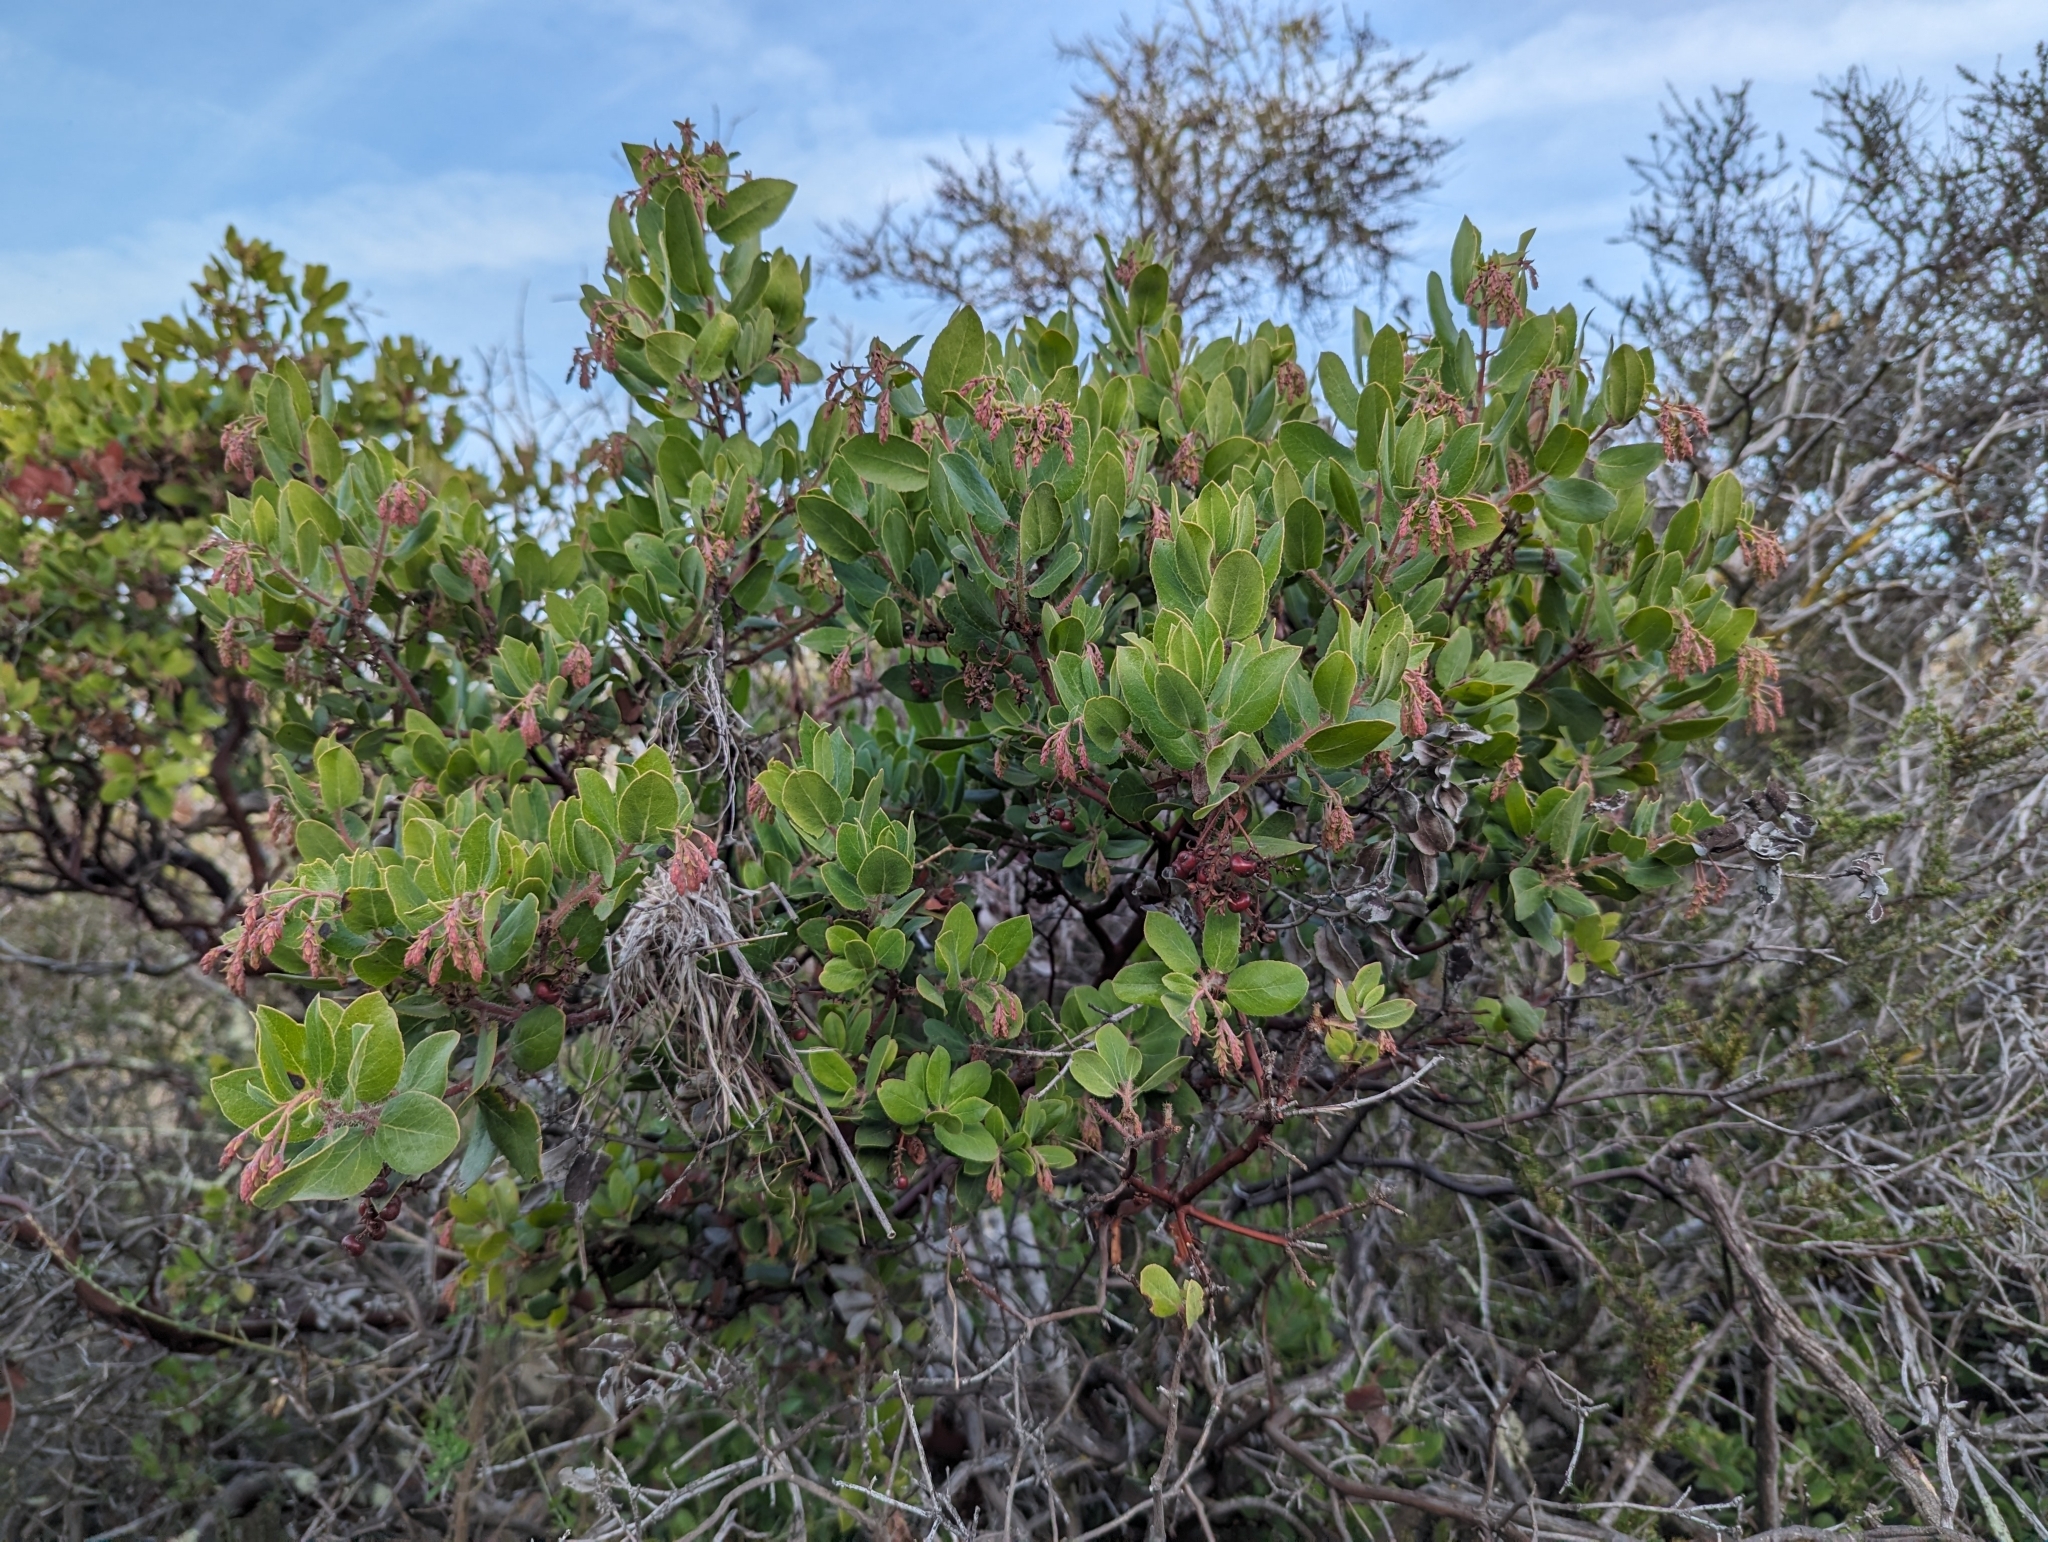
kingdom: Plantae
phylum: Tracheophyta
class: Magnoliopsida
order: Ericales
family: Ericaceae
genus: Arctostaphylos
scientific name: Arctostaphylos crustacea
